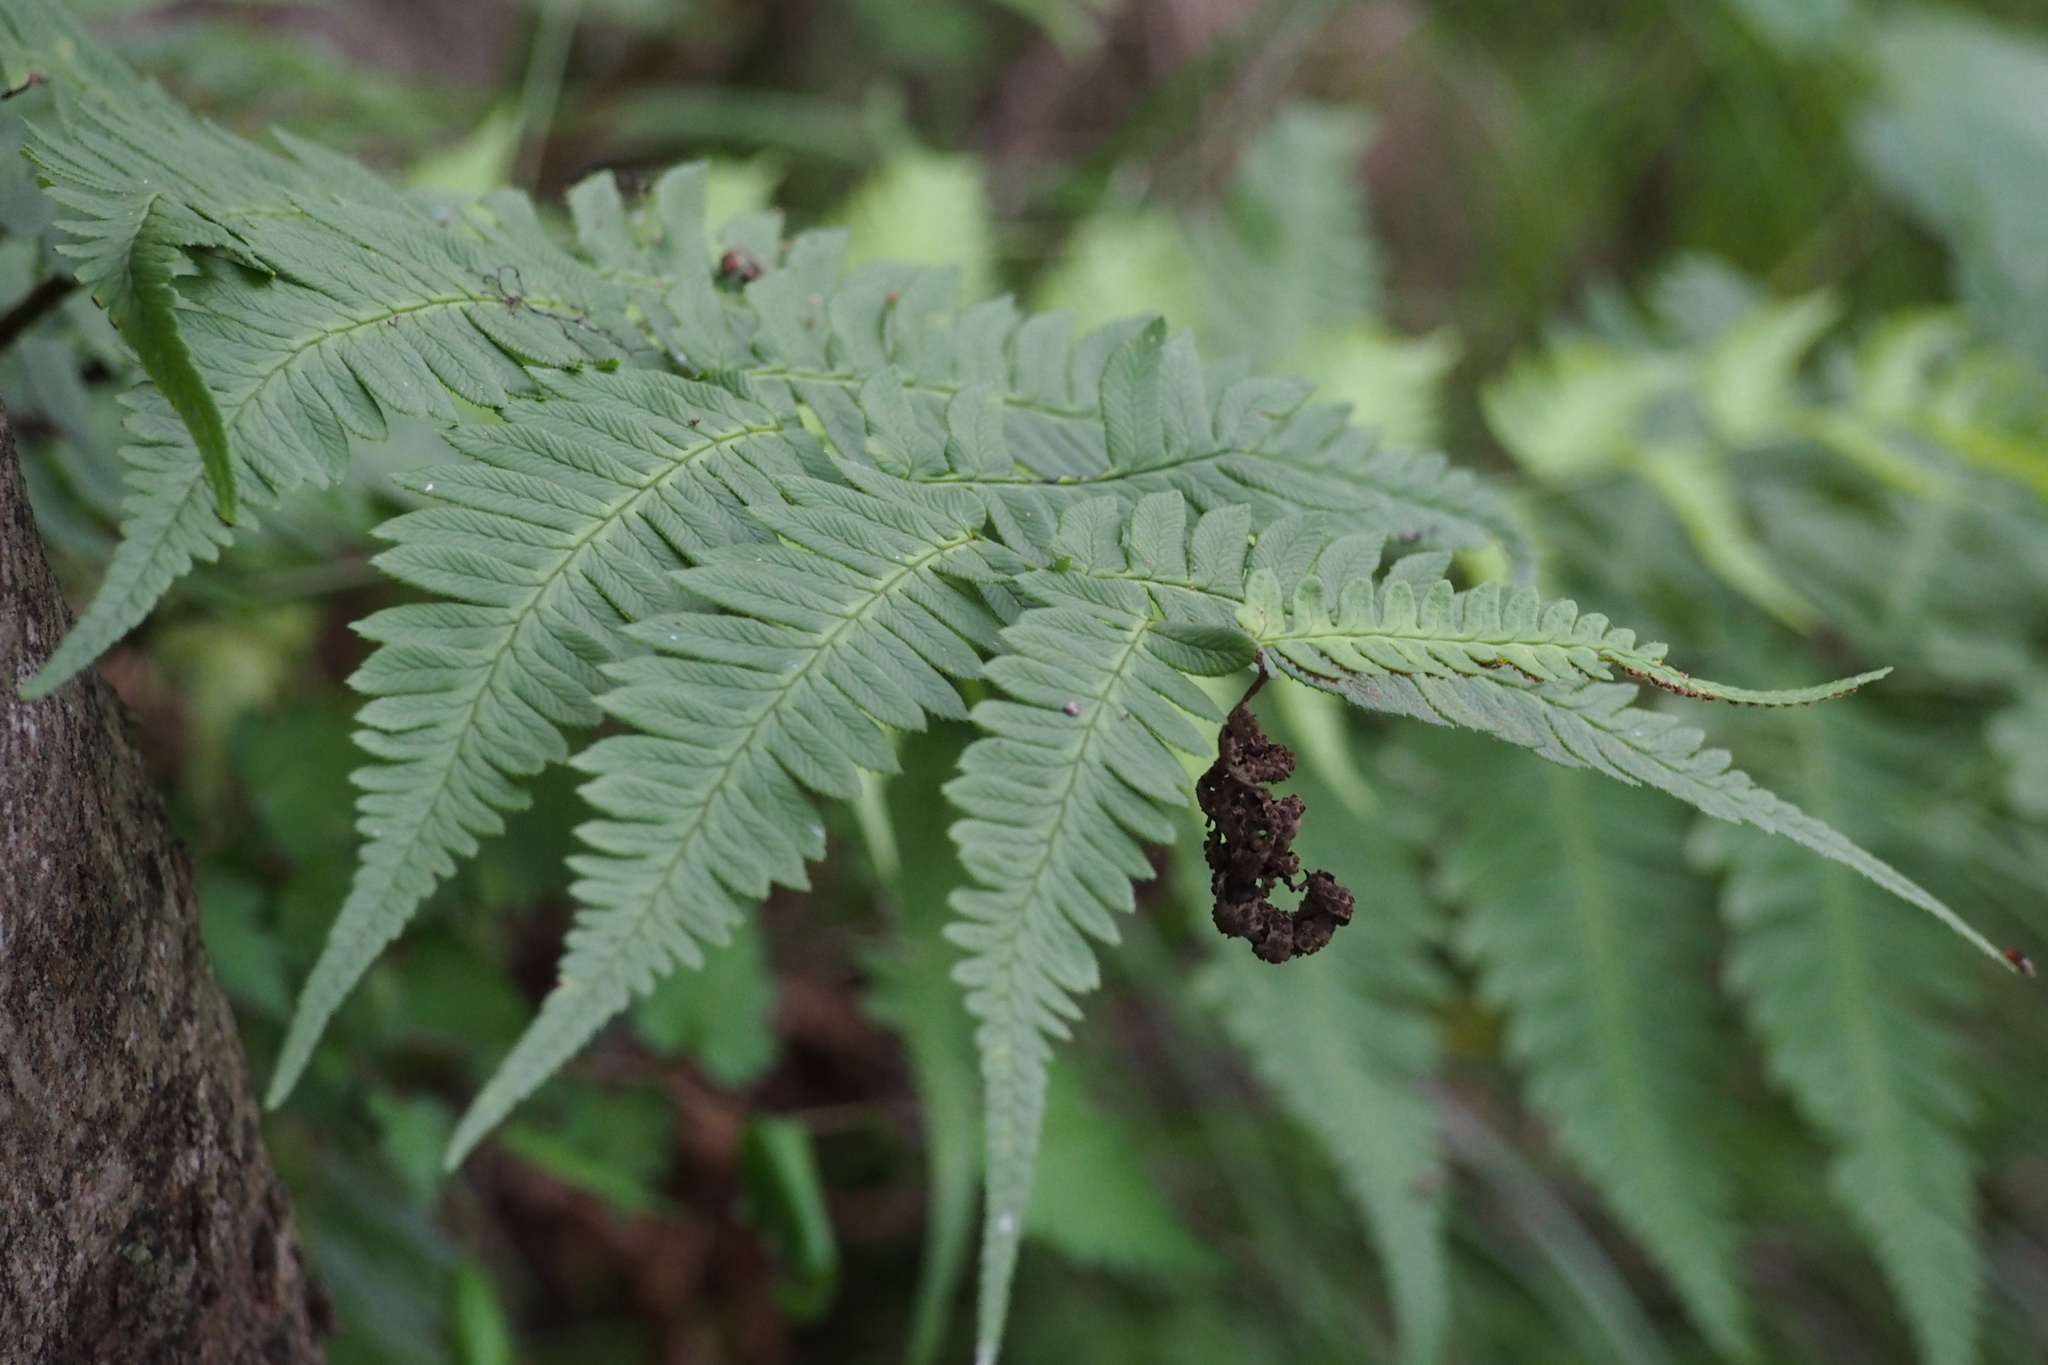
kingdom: Plantae
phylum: Tracheophyta
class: Polypodiopsida
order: Polypodiales
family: Dryopteridaceae
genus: Dryopteris
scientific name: Dryopteris lacera
